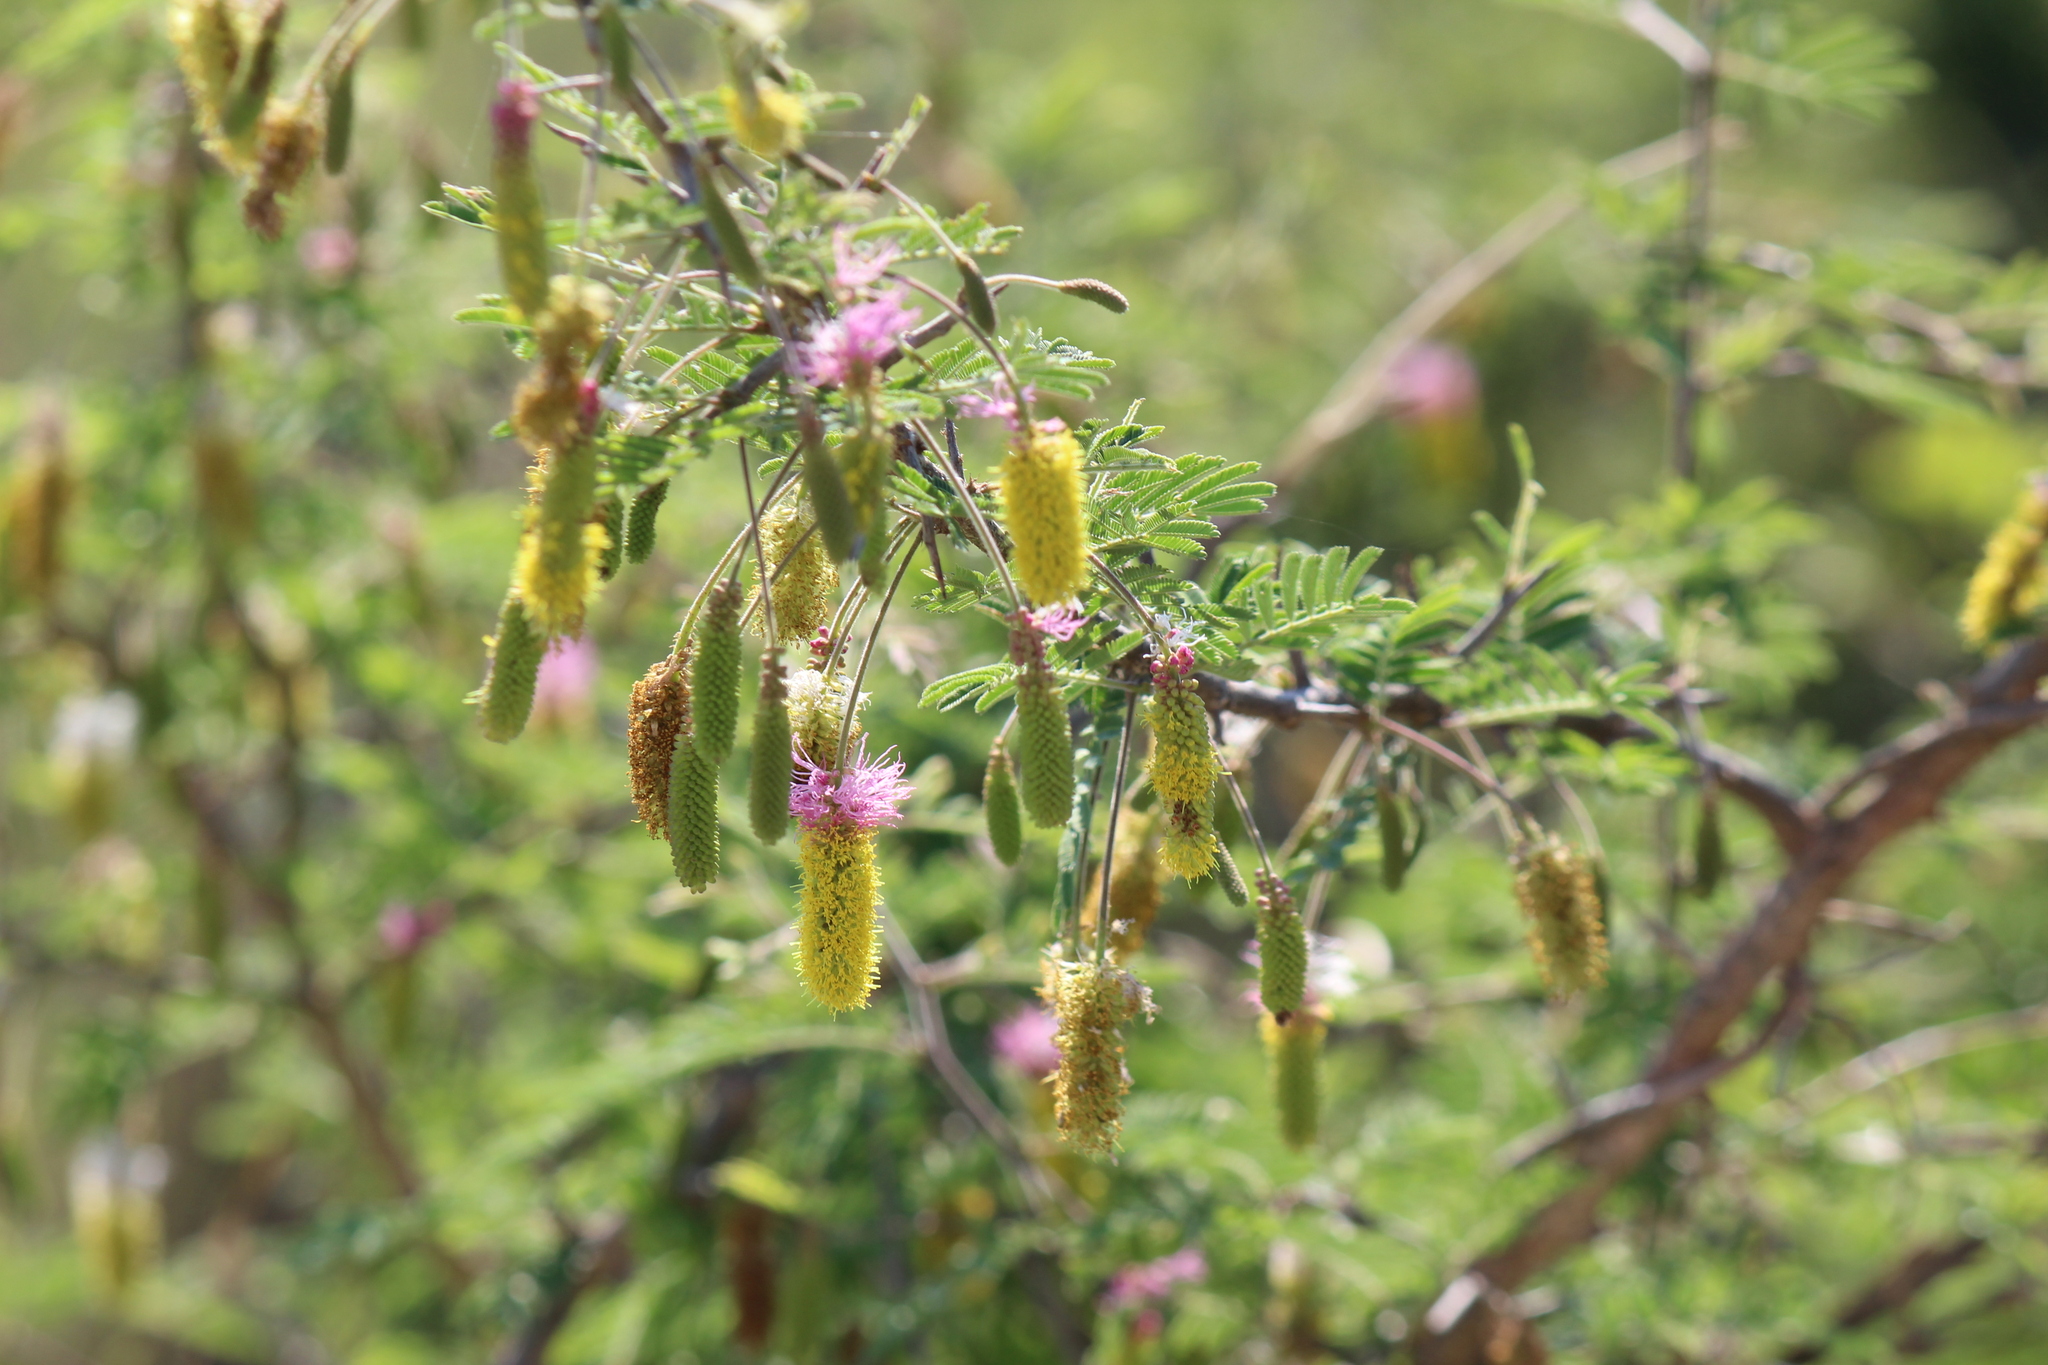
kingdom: Plantae
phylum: Tracheophyta
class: Magnoliopsida
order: Fabales
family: Fabaceae
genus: Dichrostachys
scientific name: Dichrostachys cinerea
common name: Sicklebush
